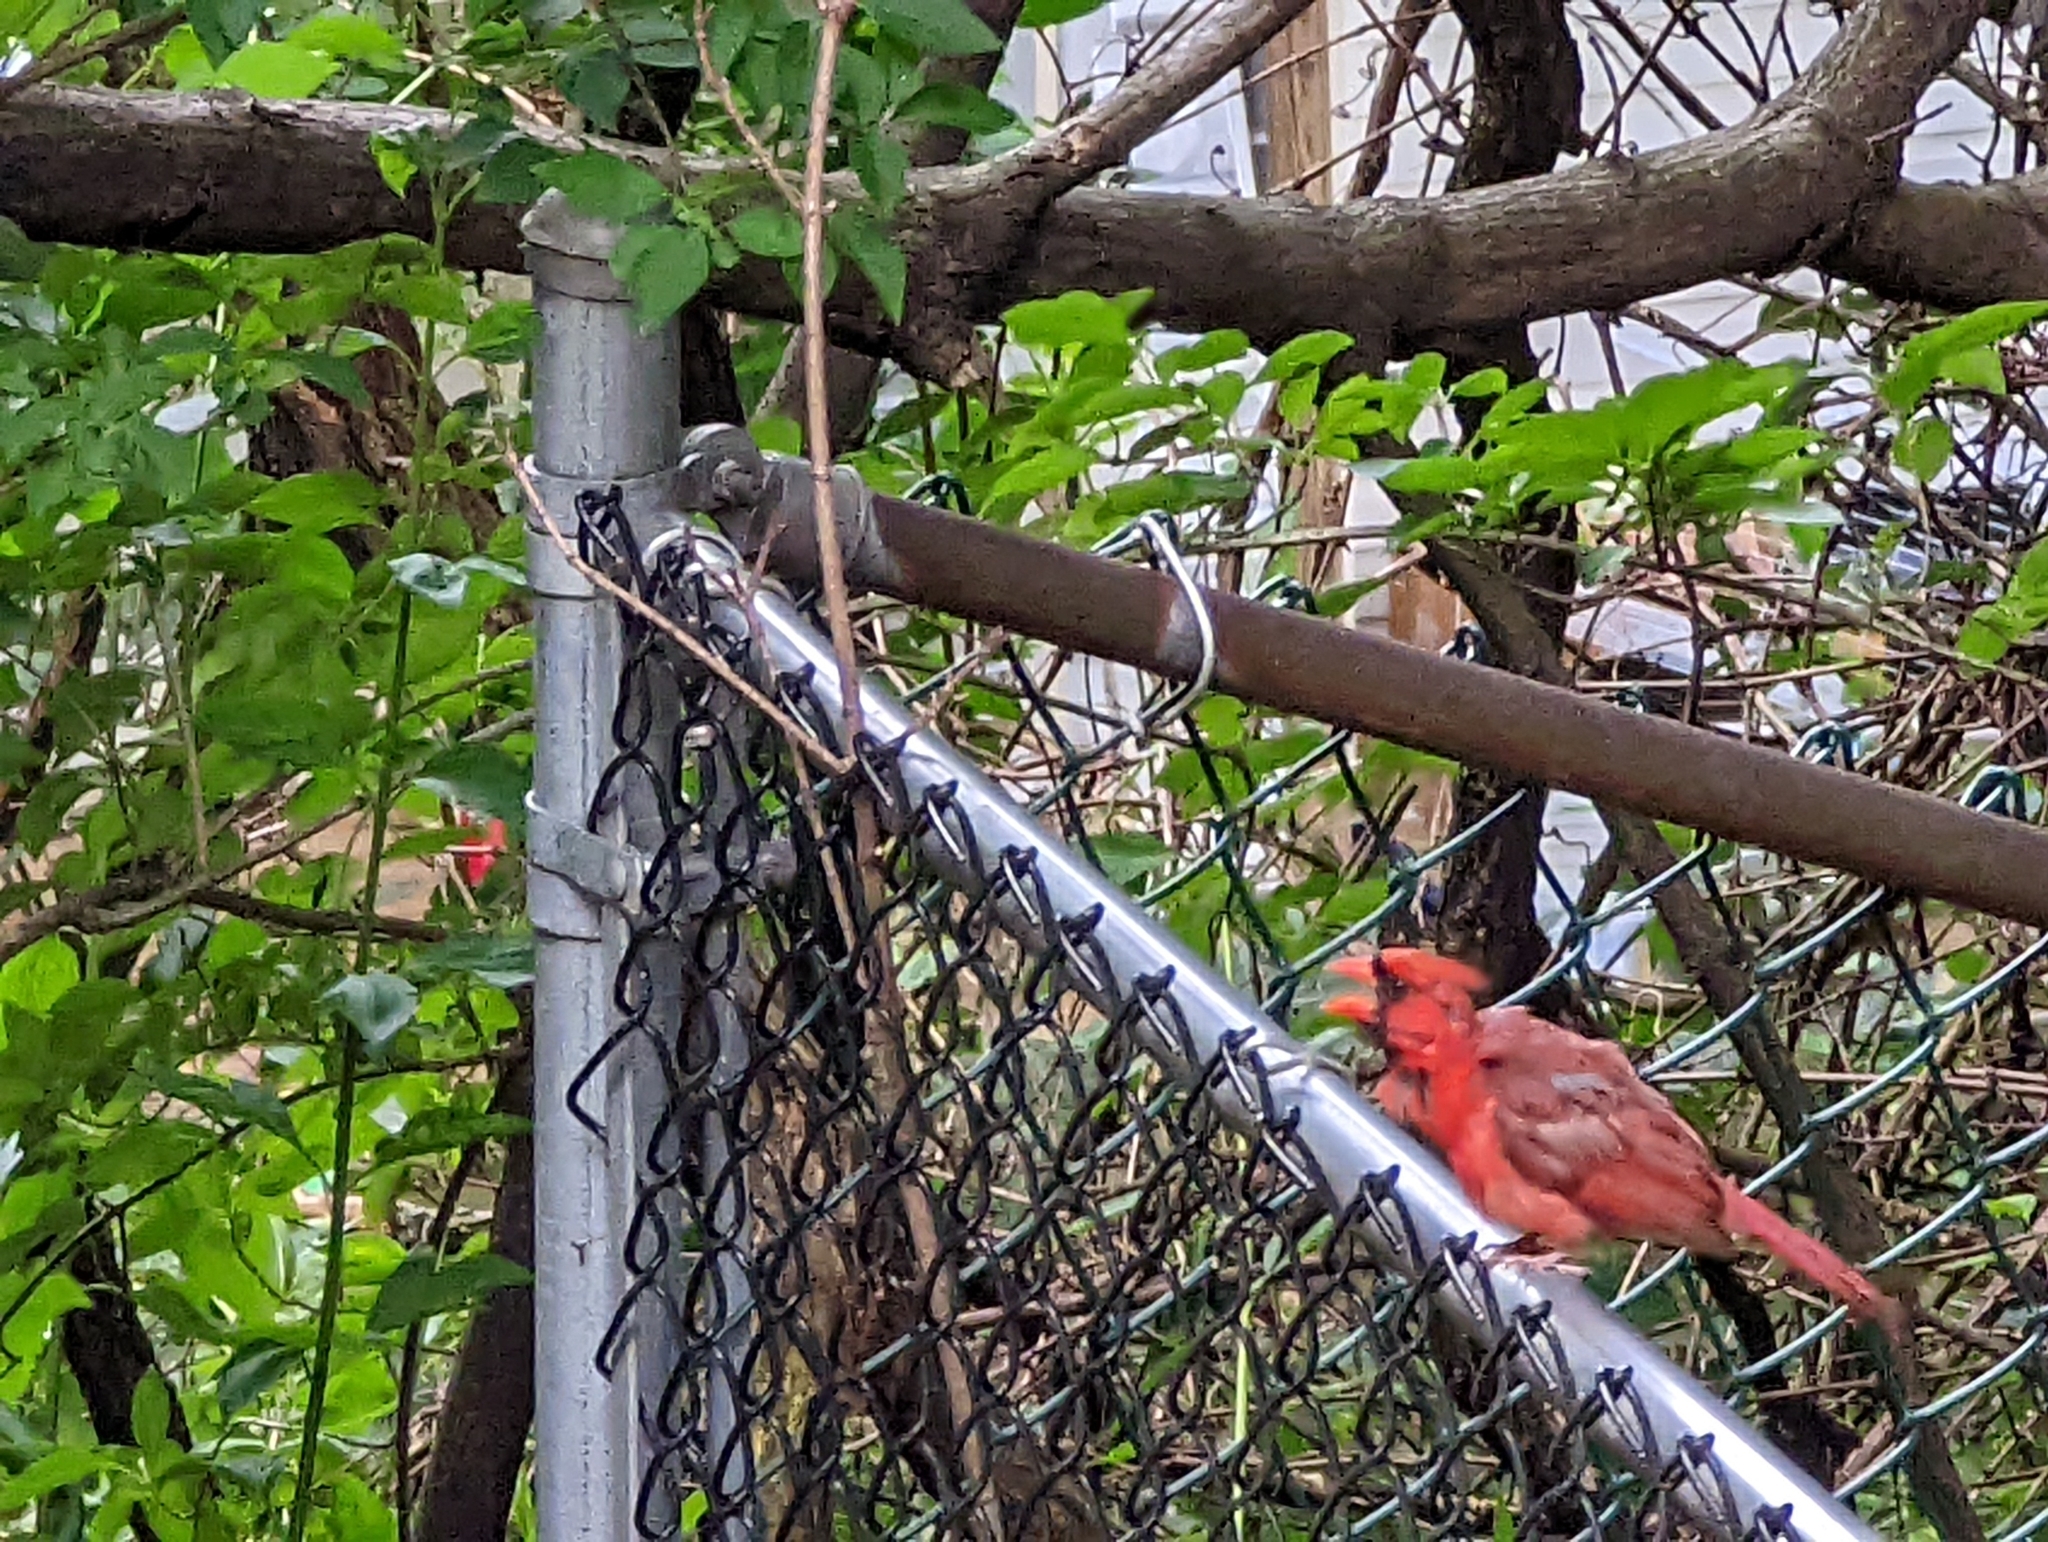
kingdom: Animalia
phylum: Chordata
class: Aves
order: Passeriformes
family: Cardinalidae
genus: Cardinalis
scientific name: Cardinalis cardinalis
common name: Northern cardinal
